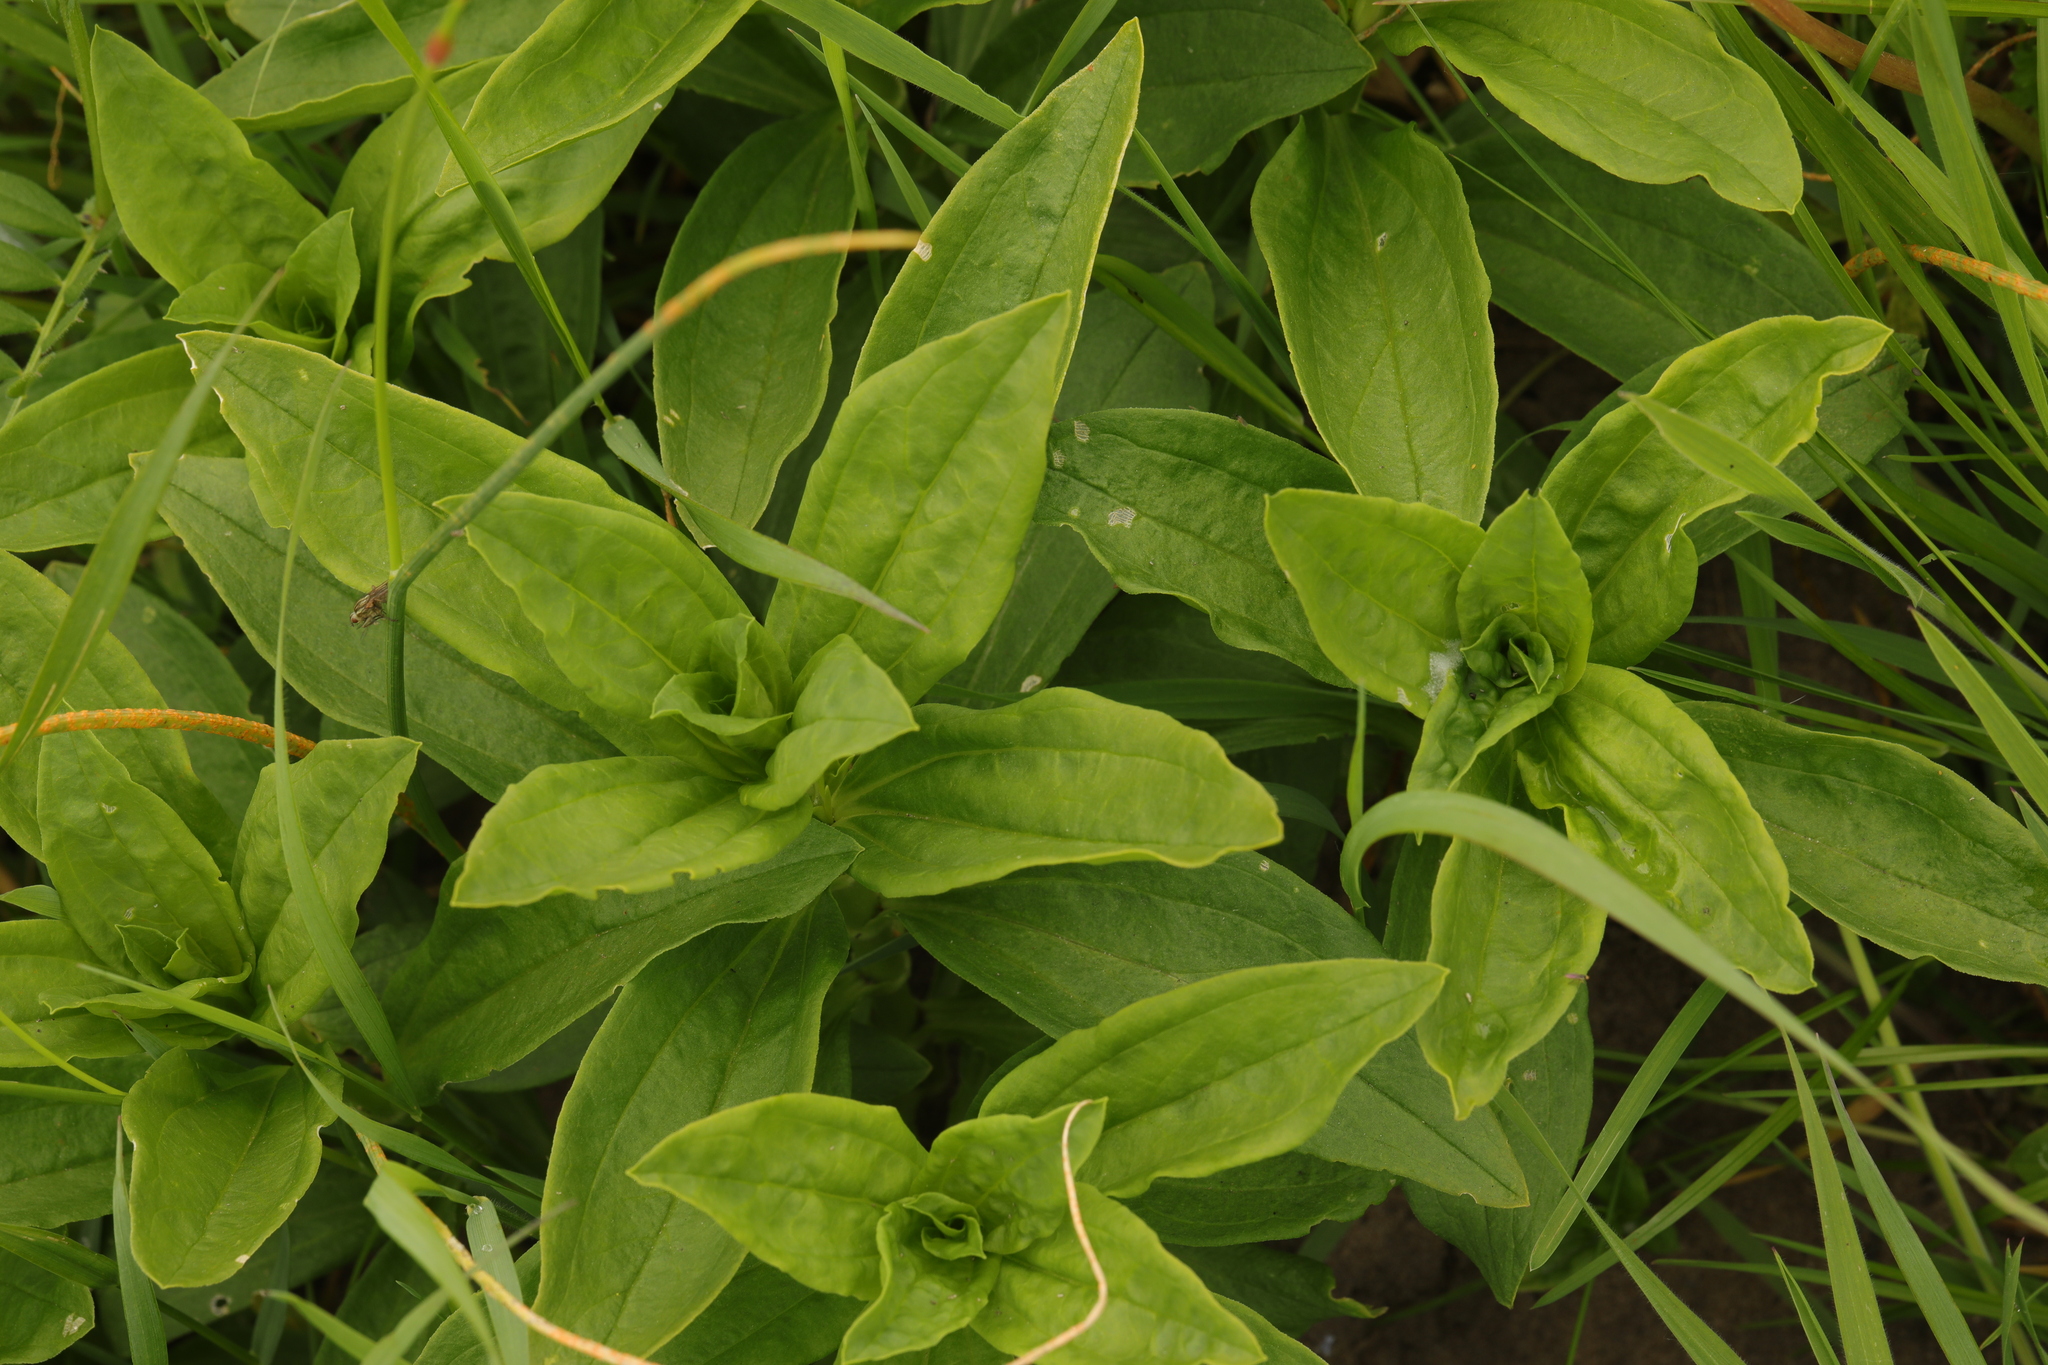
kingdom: Plantae
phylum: Tracheophyta
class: Magnoliopsida
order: Caryophyllales
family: Caryophyllaceae
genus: Saponaria
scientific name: Saponaria officinalis
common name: Soapwort
